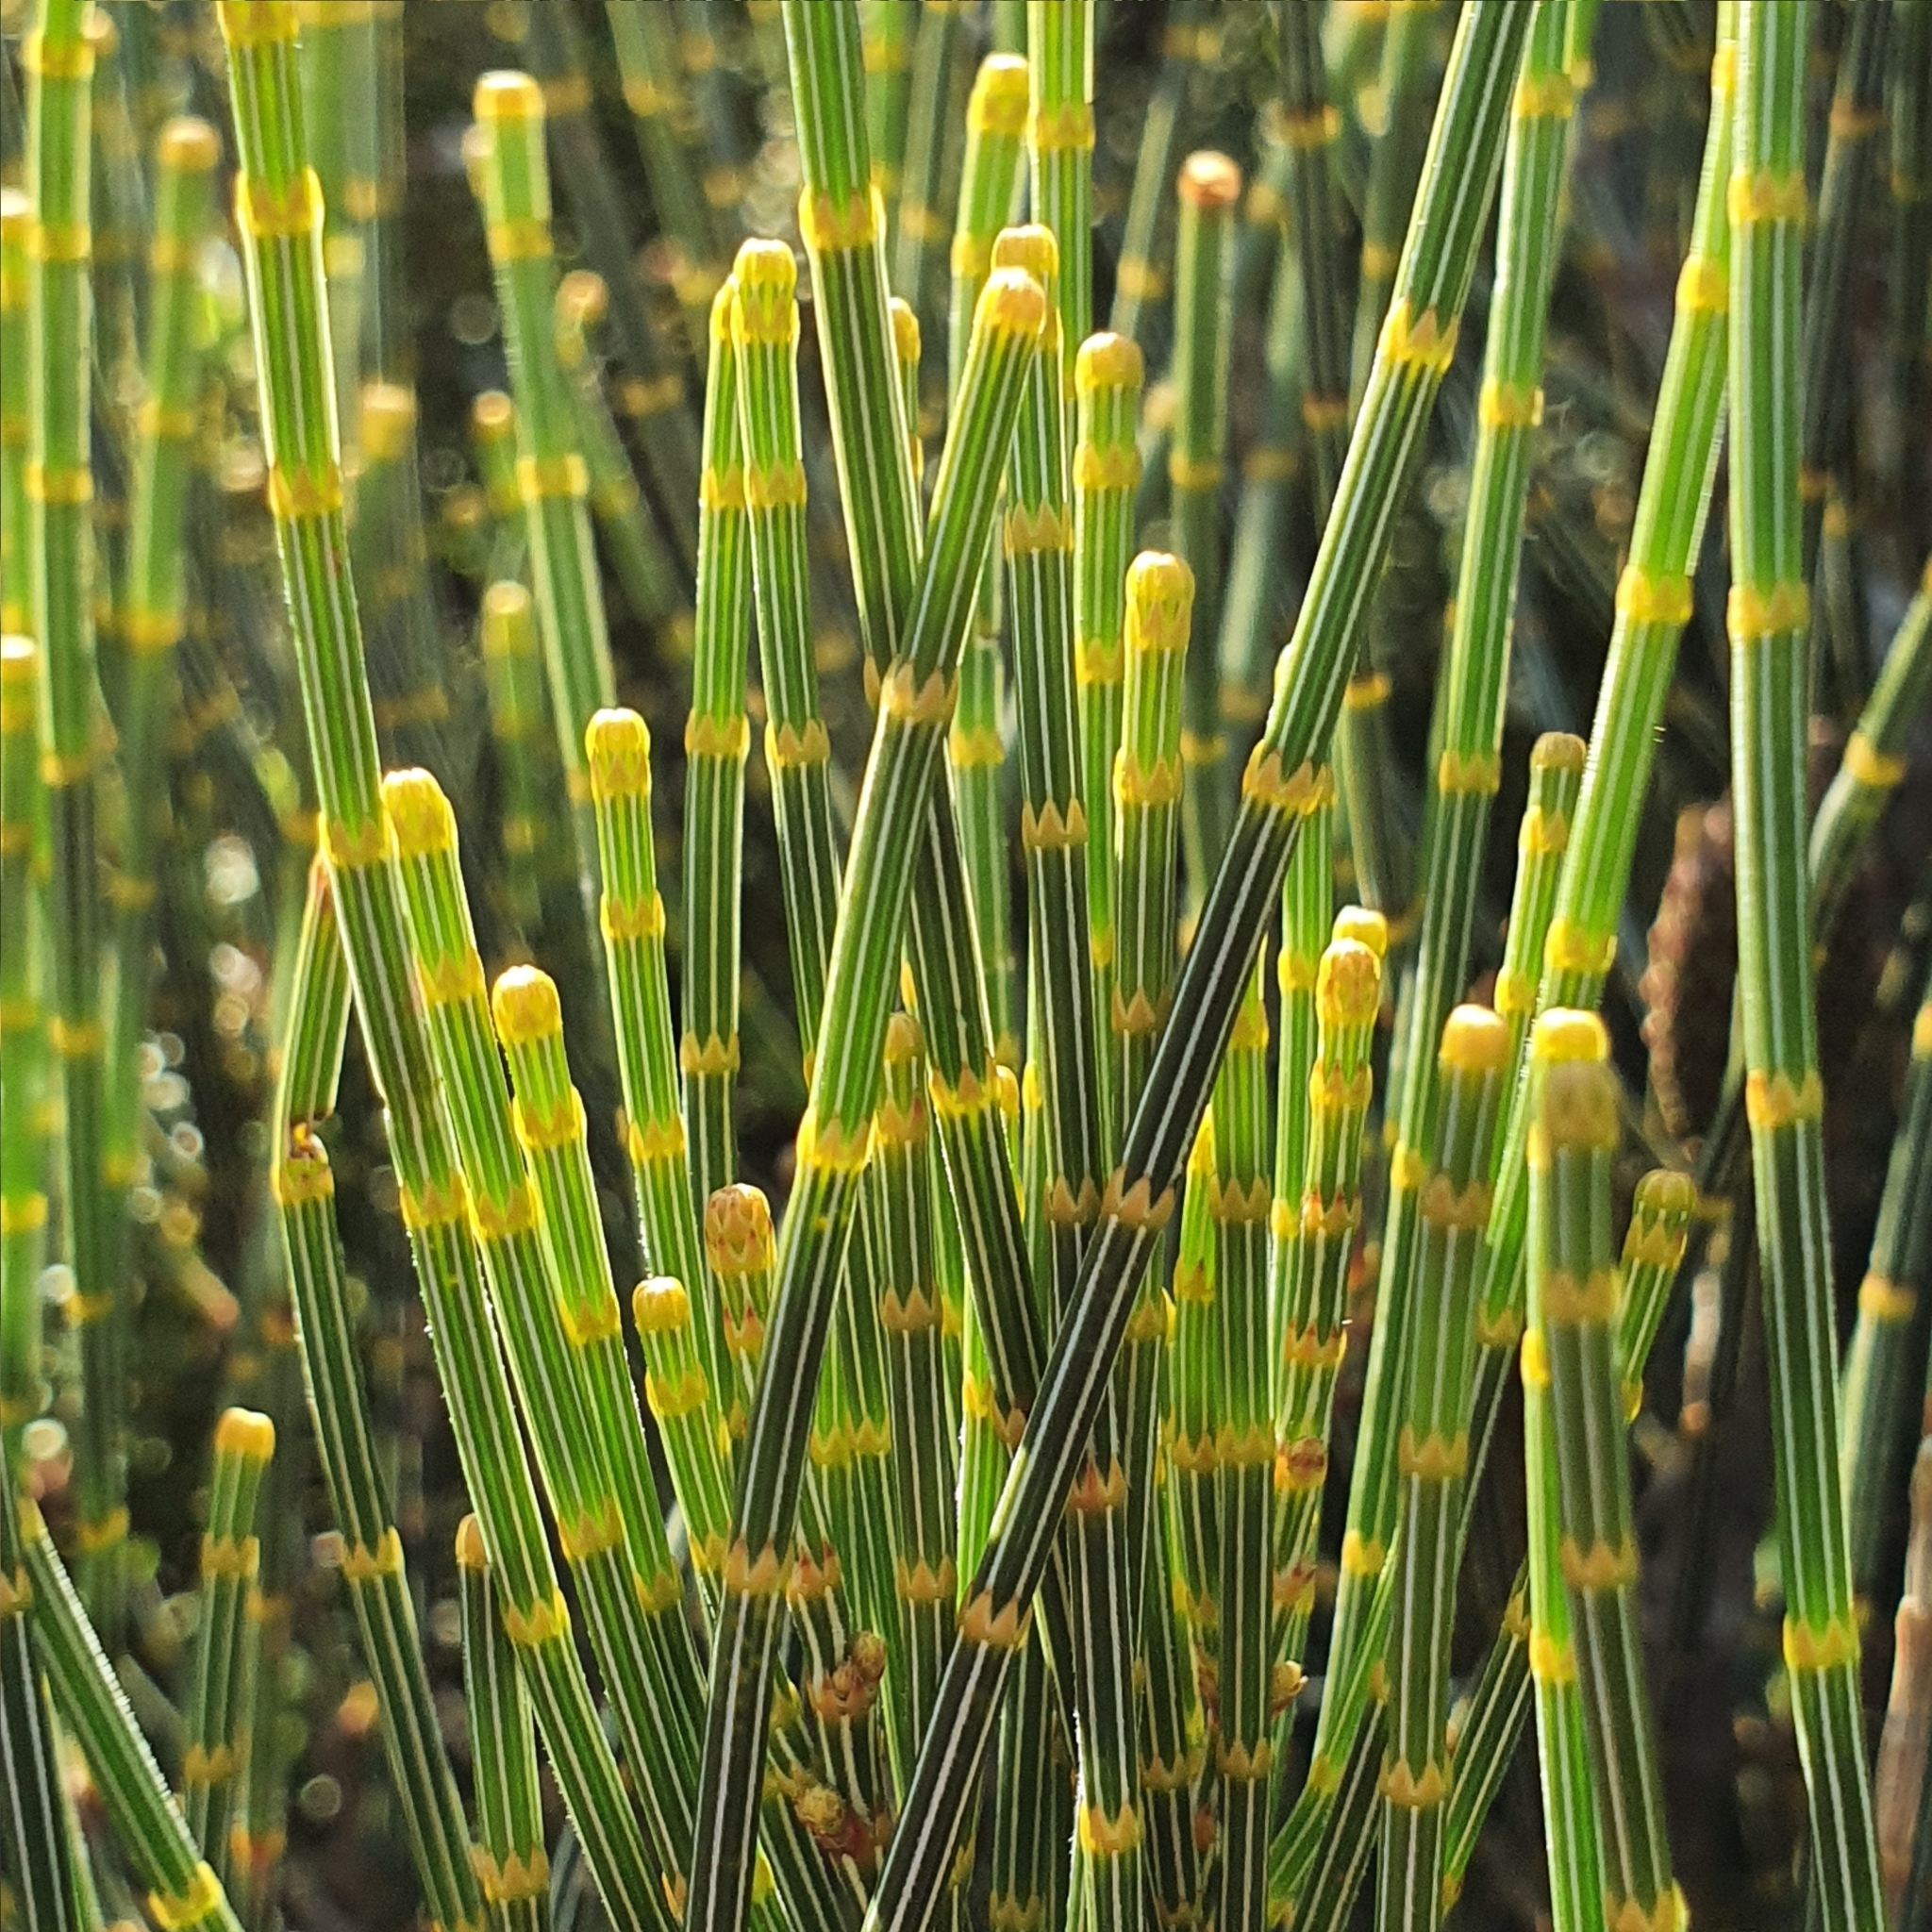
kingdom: Plantae
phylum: Tracheophyta
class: Magnoliopsida
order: Fagales
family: Casuarinaceae
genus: Allocasuarina
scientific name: Allocasuarina distyla
